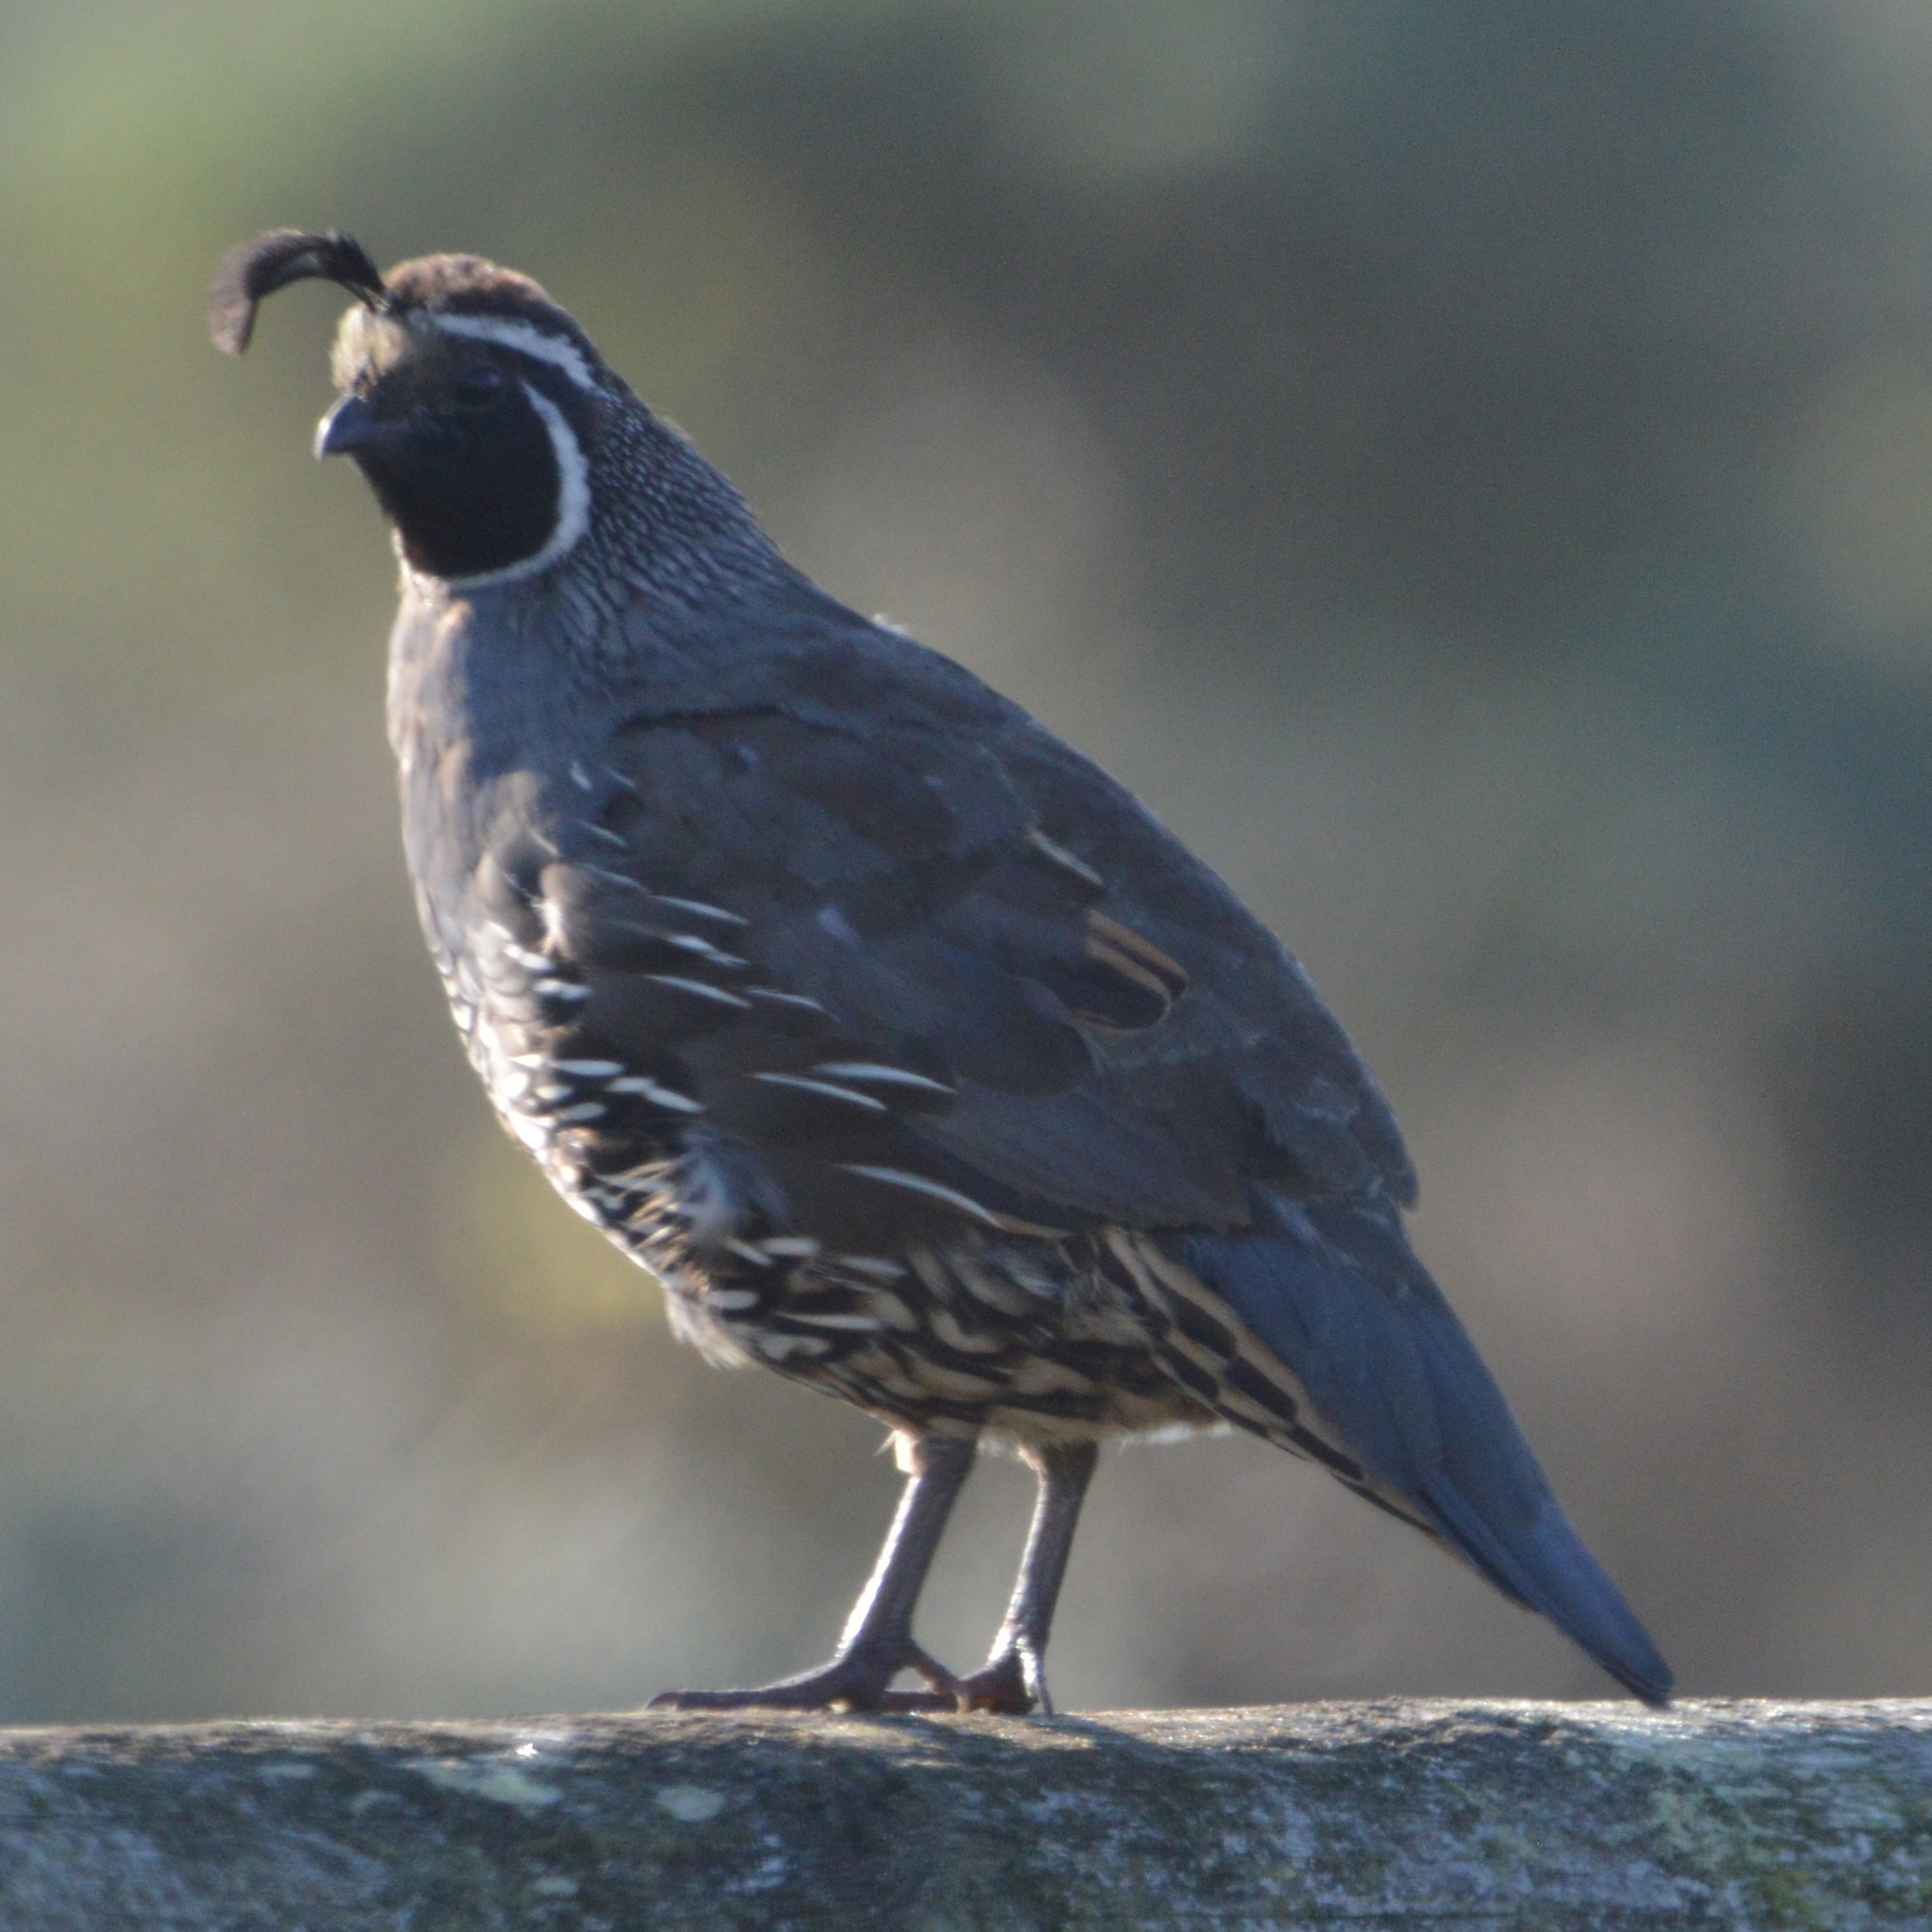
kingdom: Animalia
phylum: Chordata
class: Aves
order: Galliformes
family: Odontophoridae
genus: Callipepla
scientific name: Callipepla californica
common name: California quail
